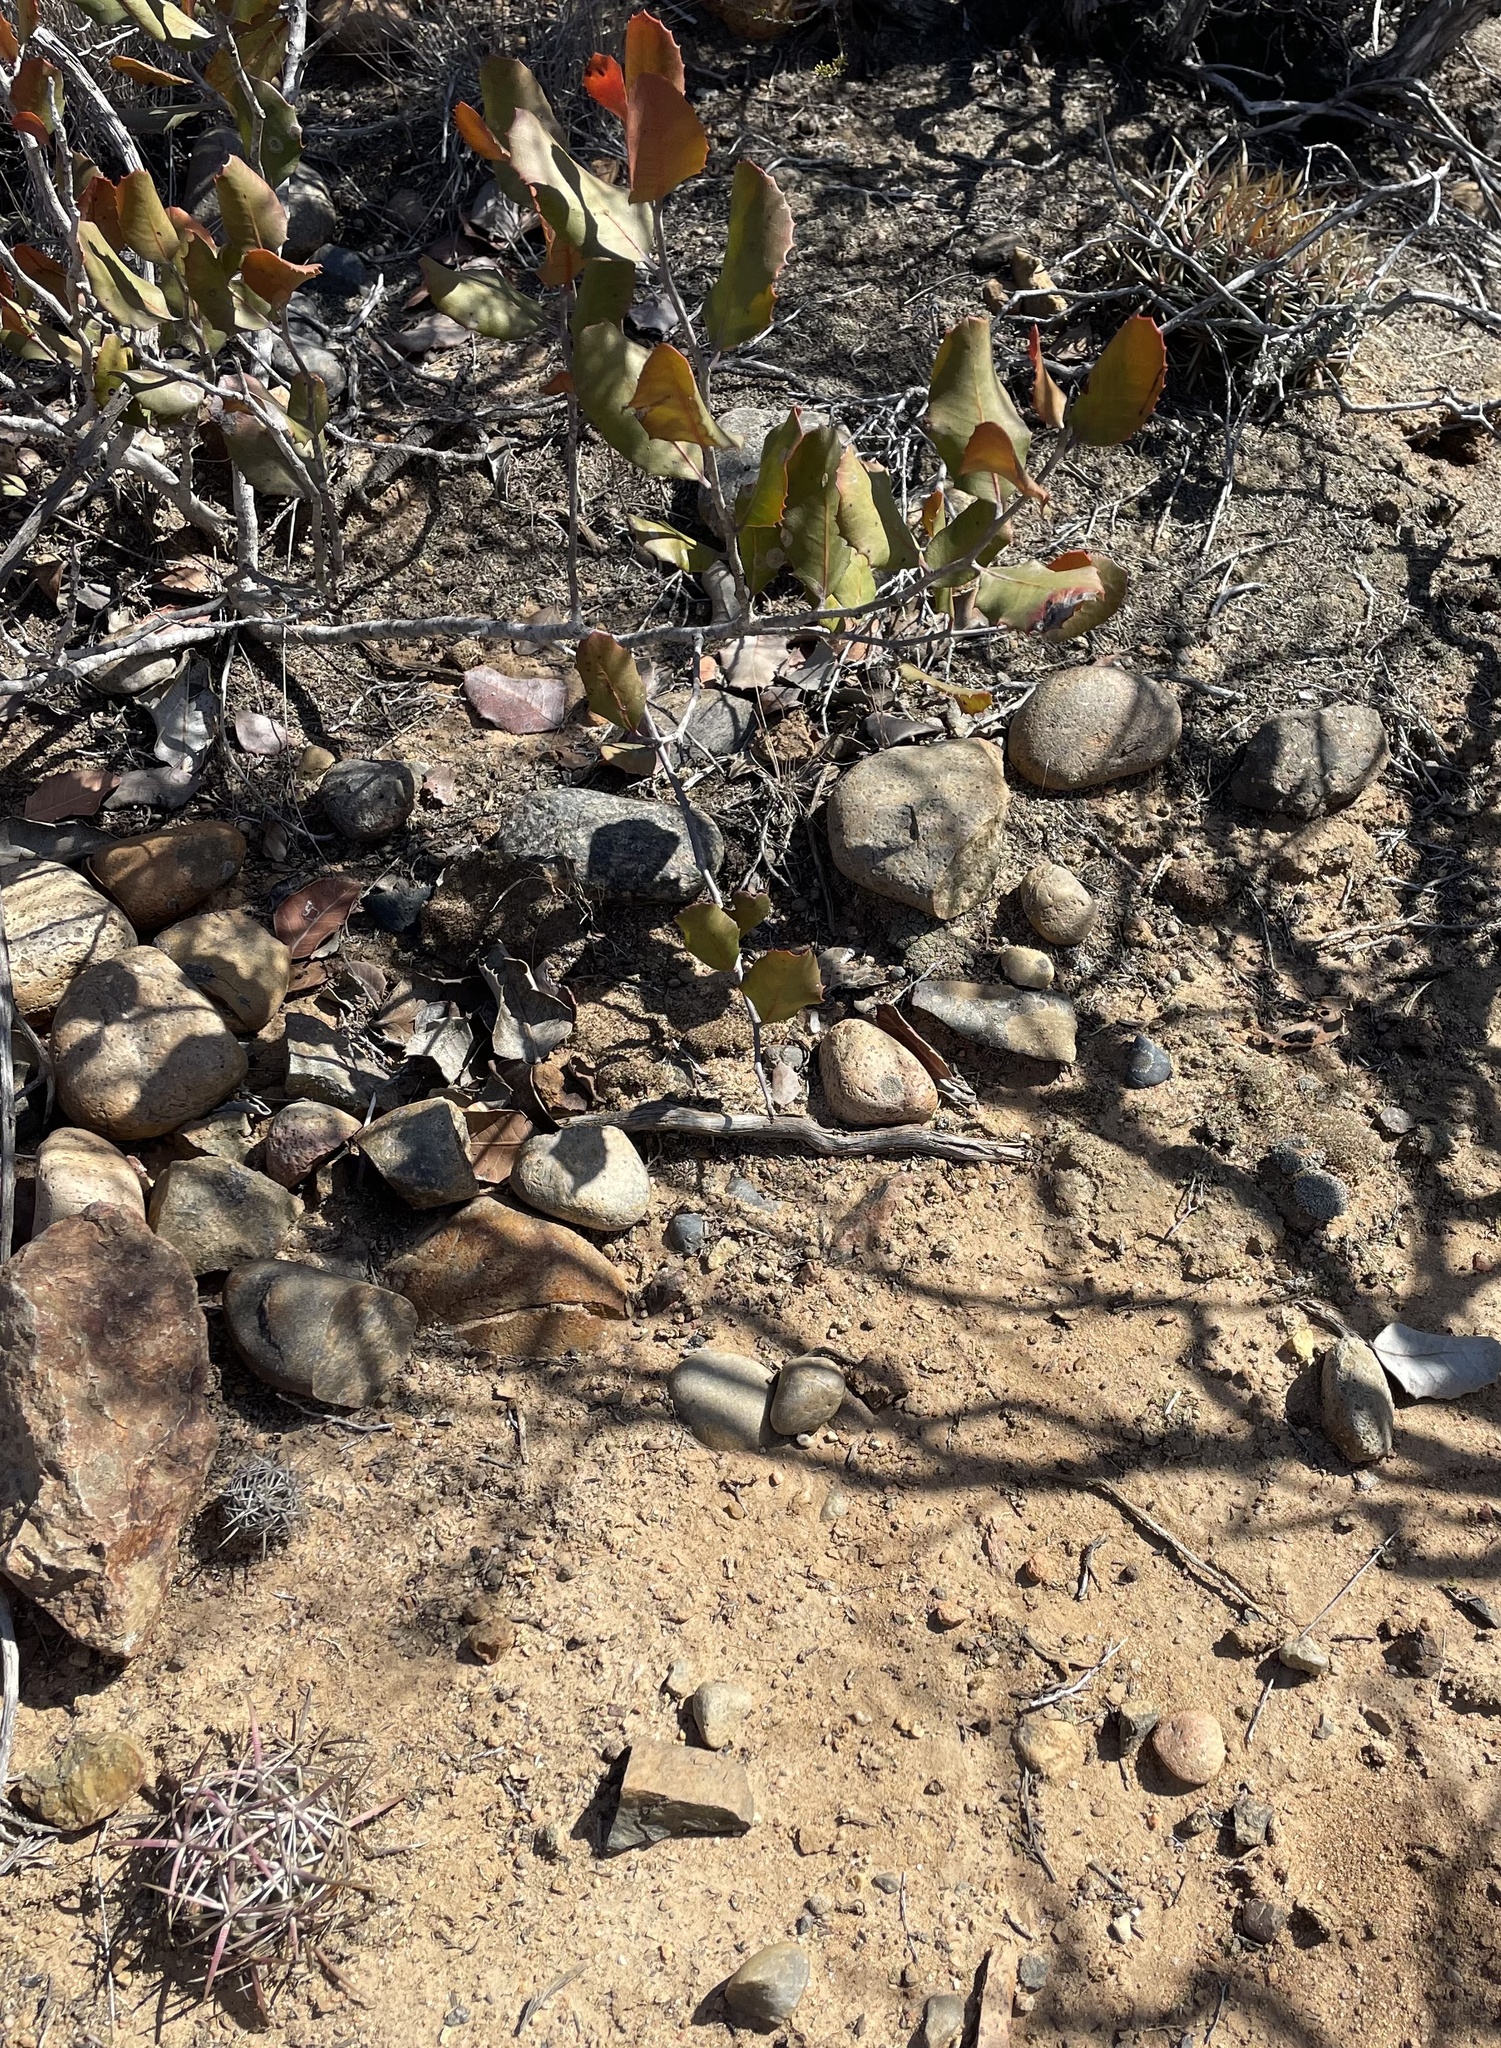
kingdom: Plantae
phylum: Tracheophyta
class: Magnoliopsida
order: Caryophyllales
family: Cactaceae
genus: Ferocactus
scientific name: Ferocactus viridescens
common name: San diego barrel cactus
